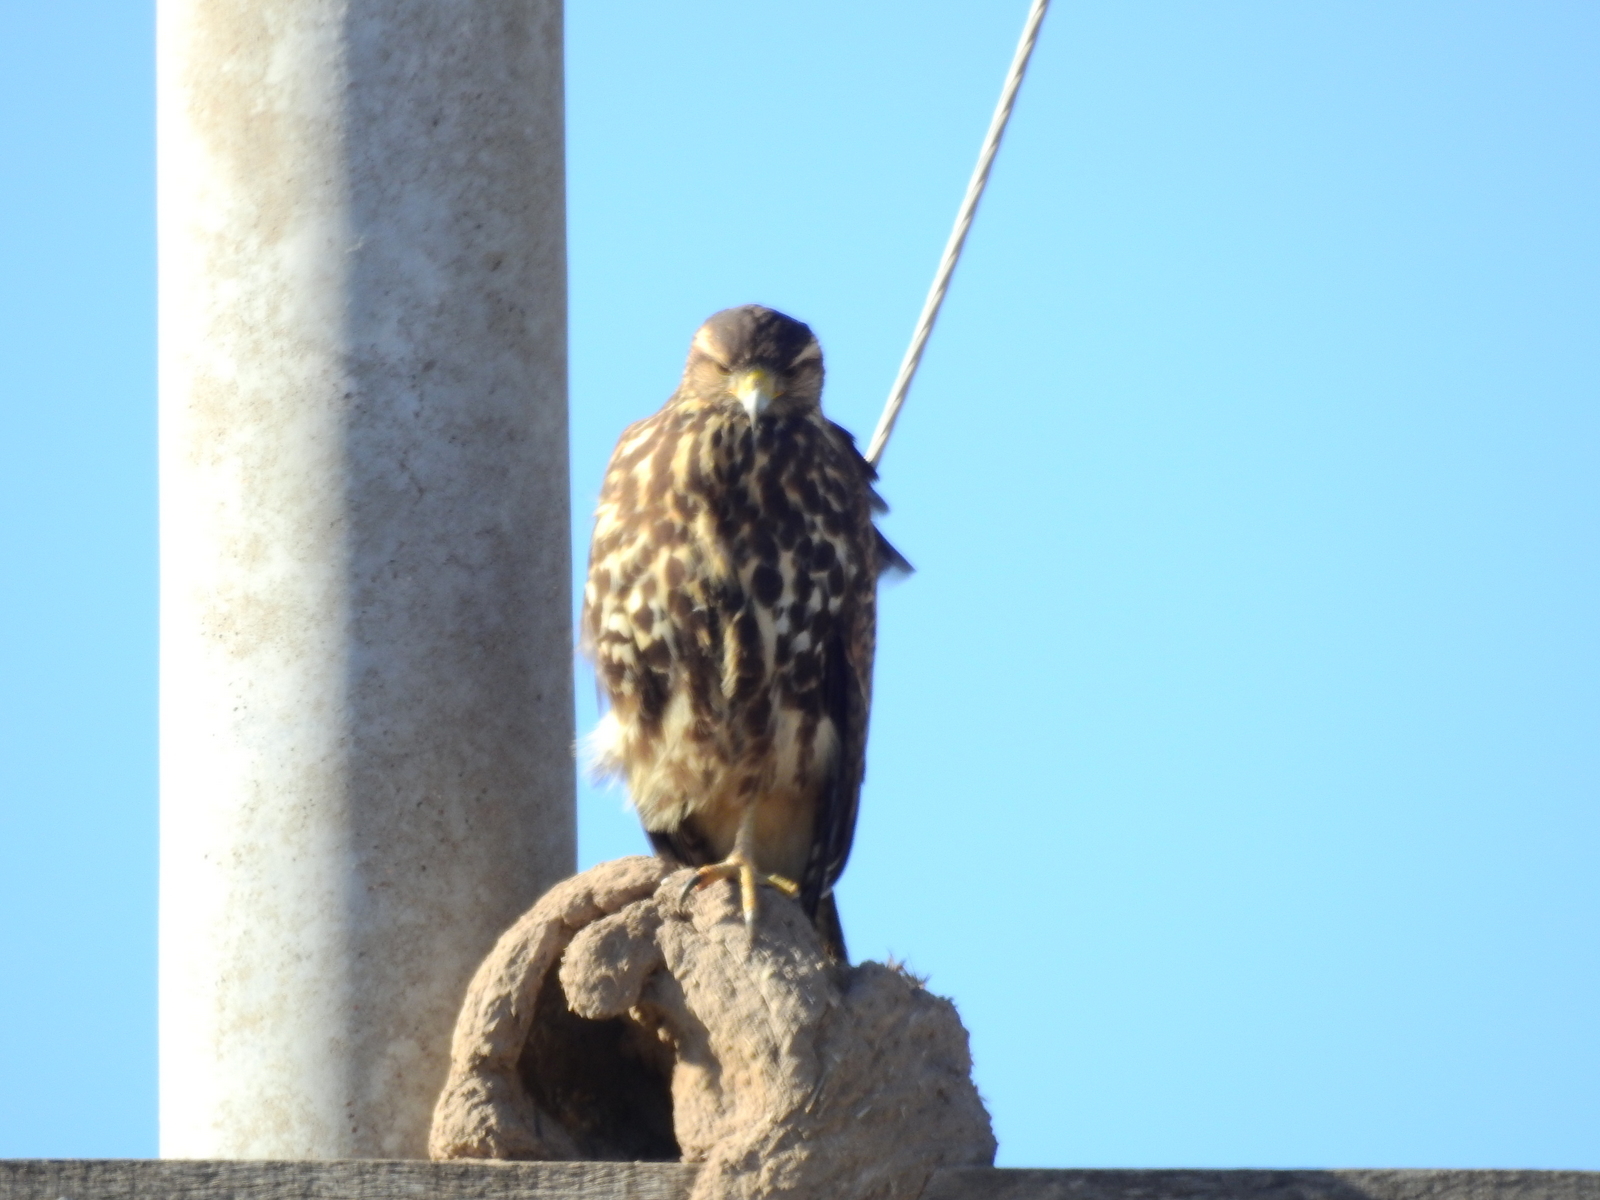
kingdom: Animalia
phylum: Chordata
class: Aves
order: Accipitriformes
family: Accipitridae
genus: Parabuteo
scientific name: Parabuteo unicinctus
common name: Harris's hawk
